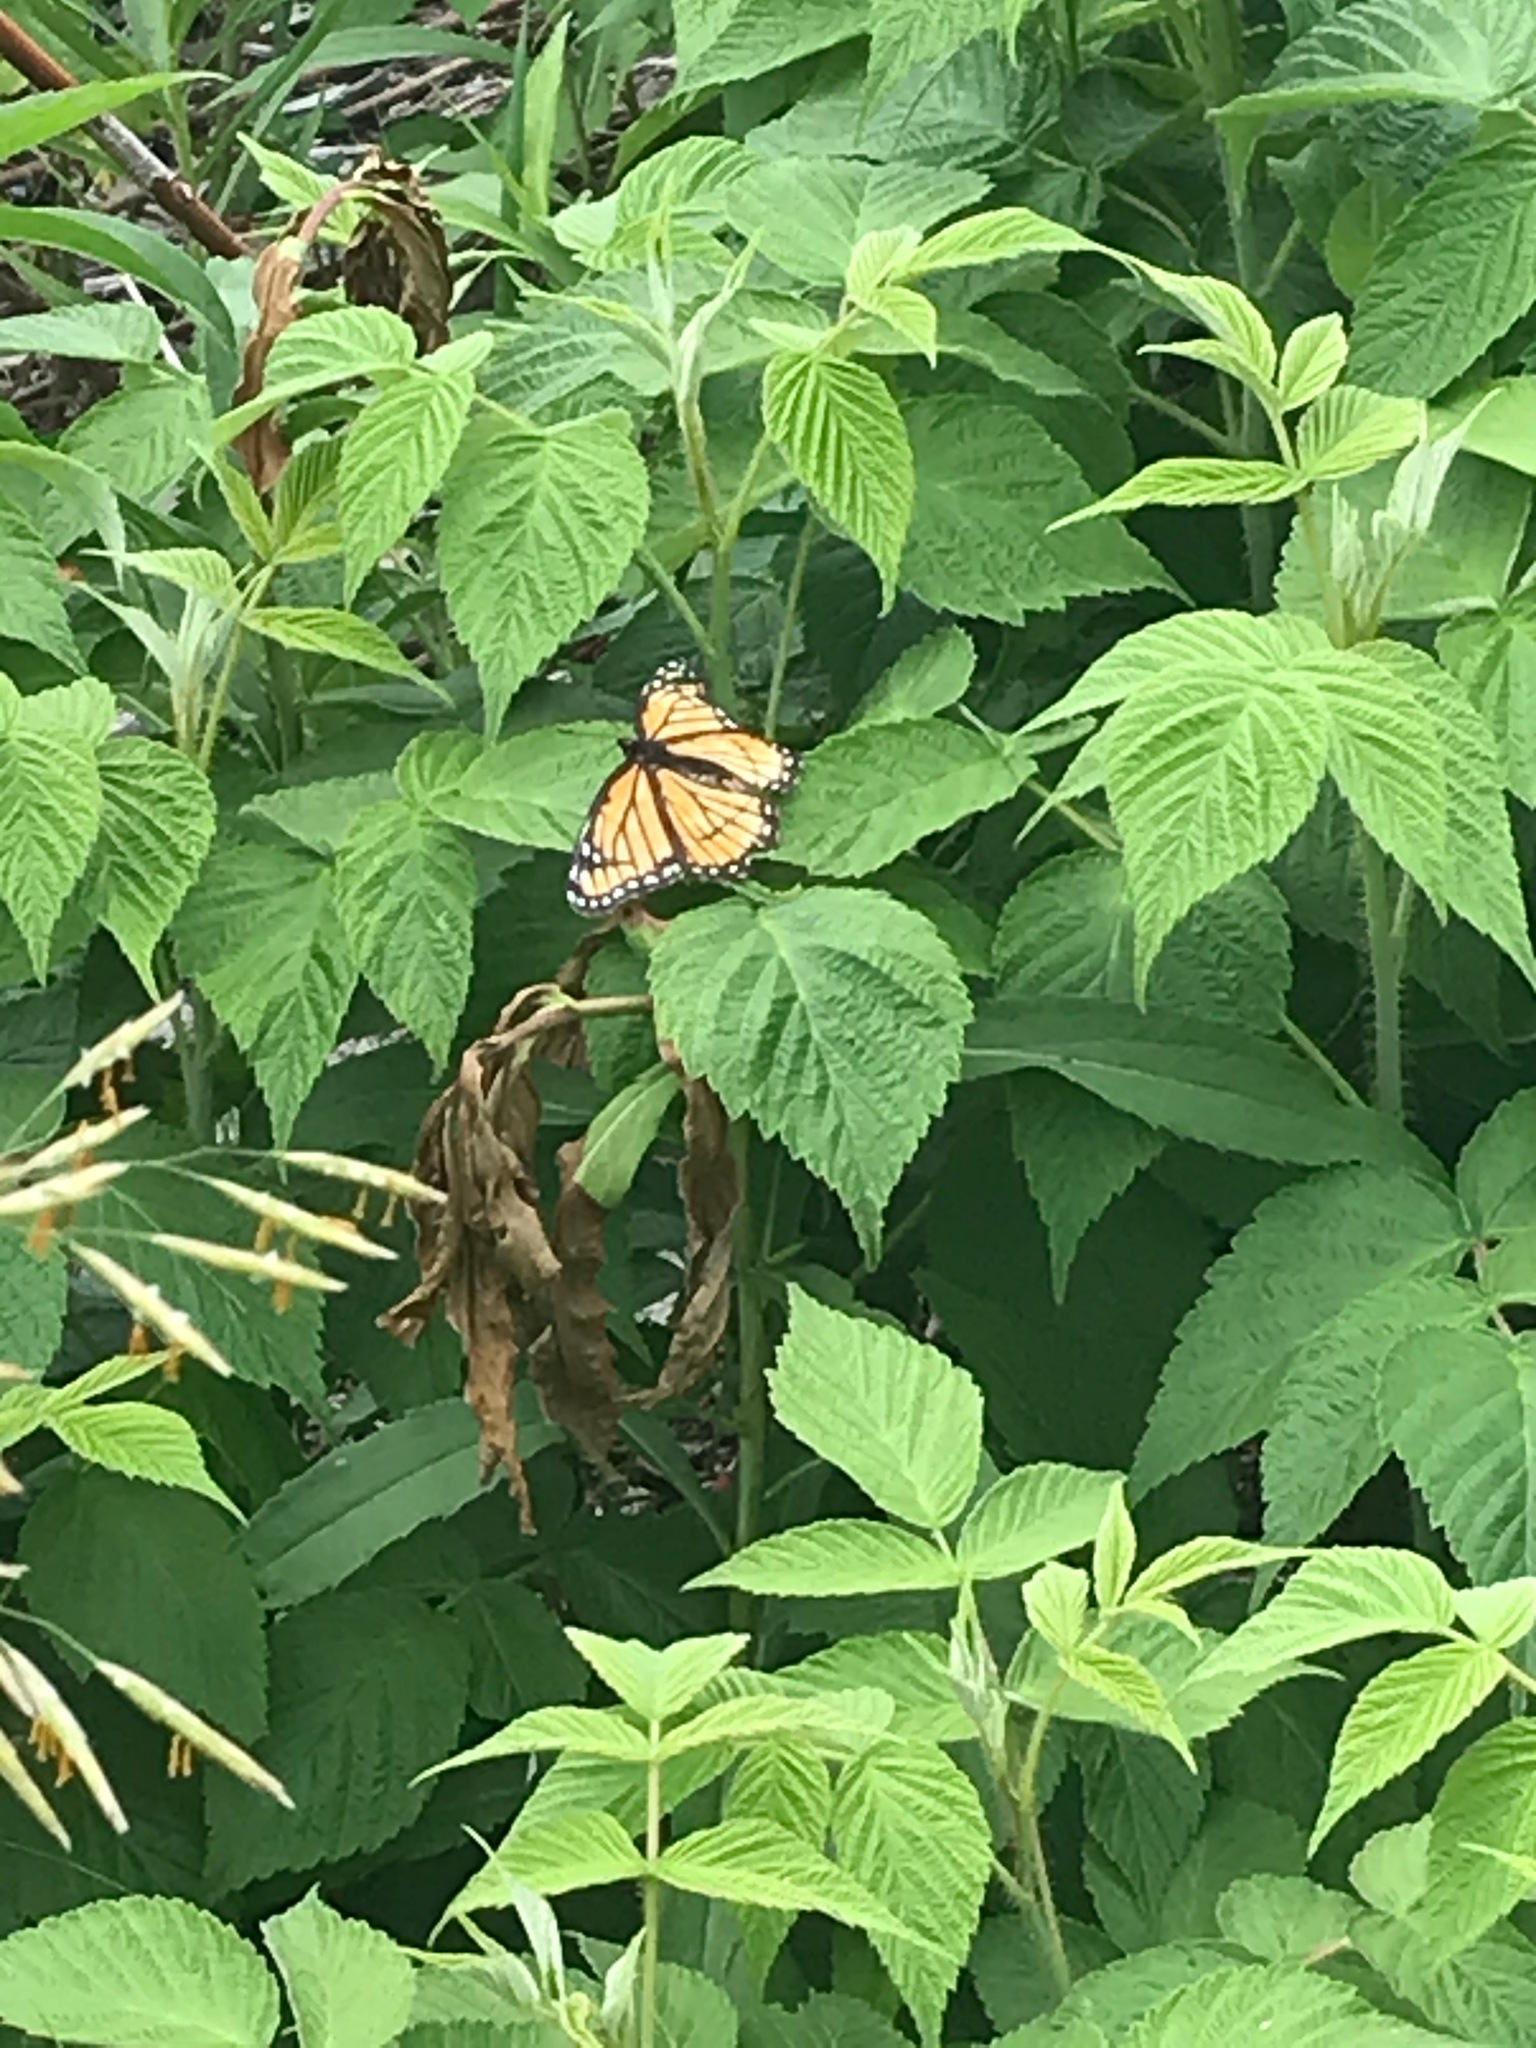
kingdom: Animalia
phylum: Arthropoda
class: Insecta
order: Lepidoptera
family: Nymphalidae
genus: Limenitis
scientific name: Limenitis archippus
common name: Viceroy
